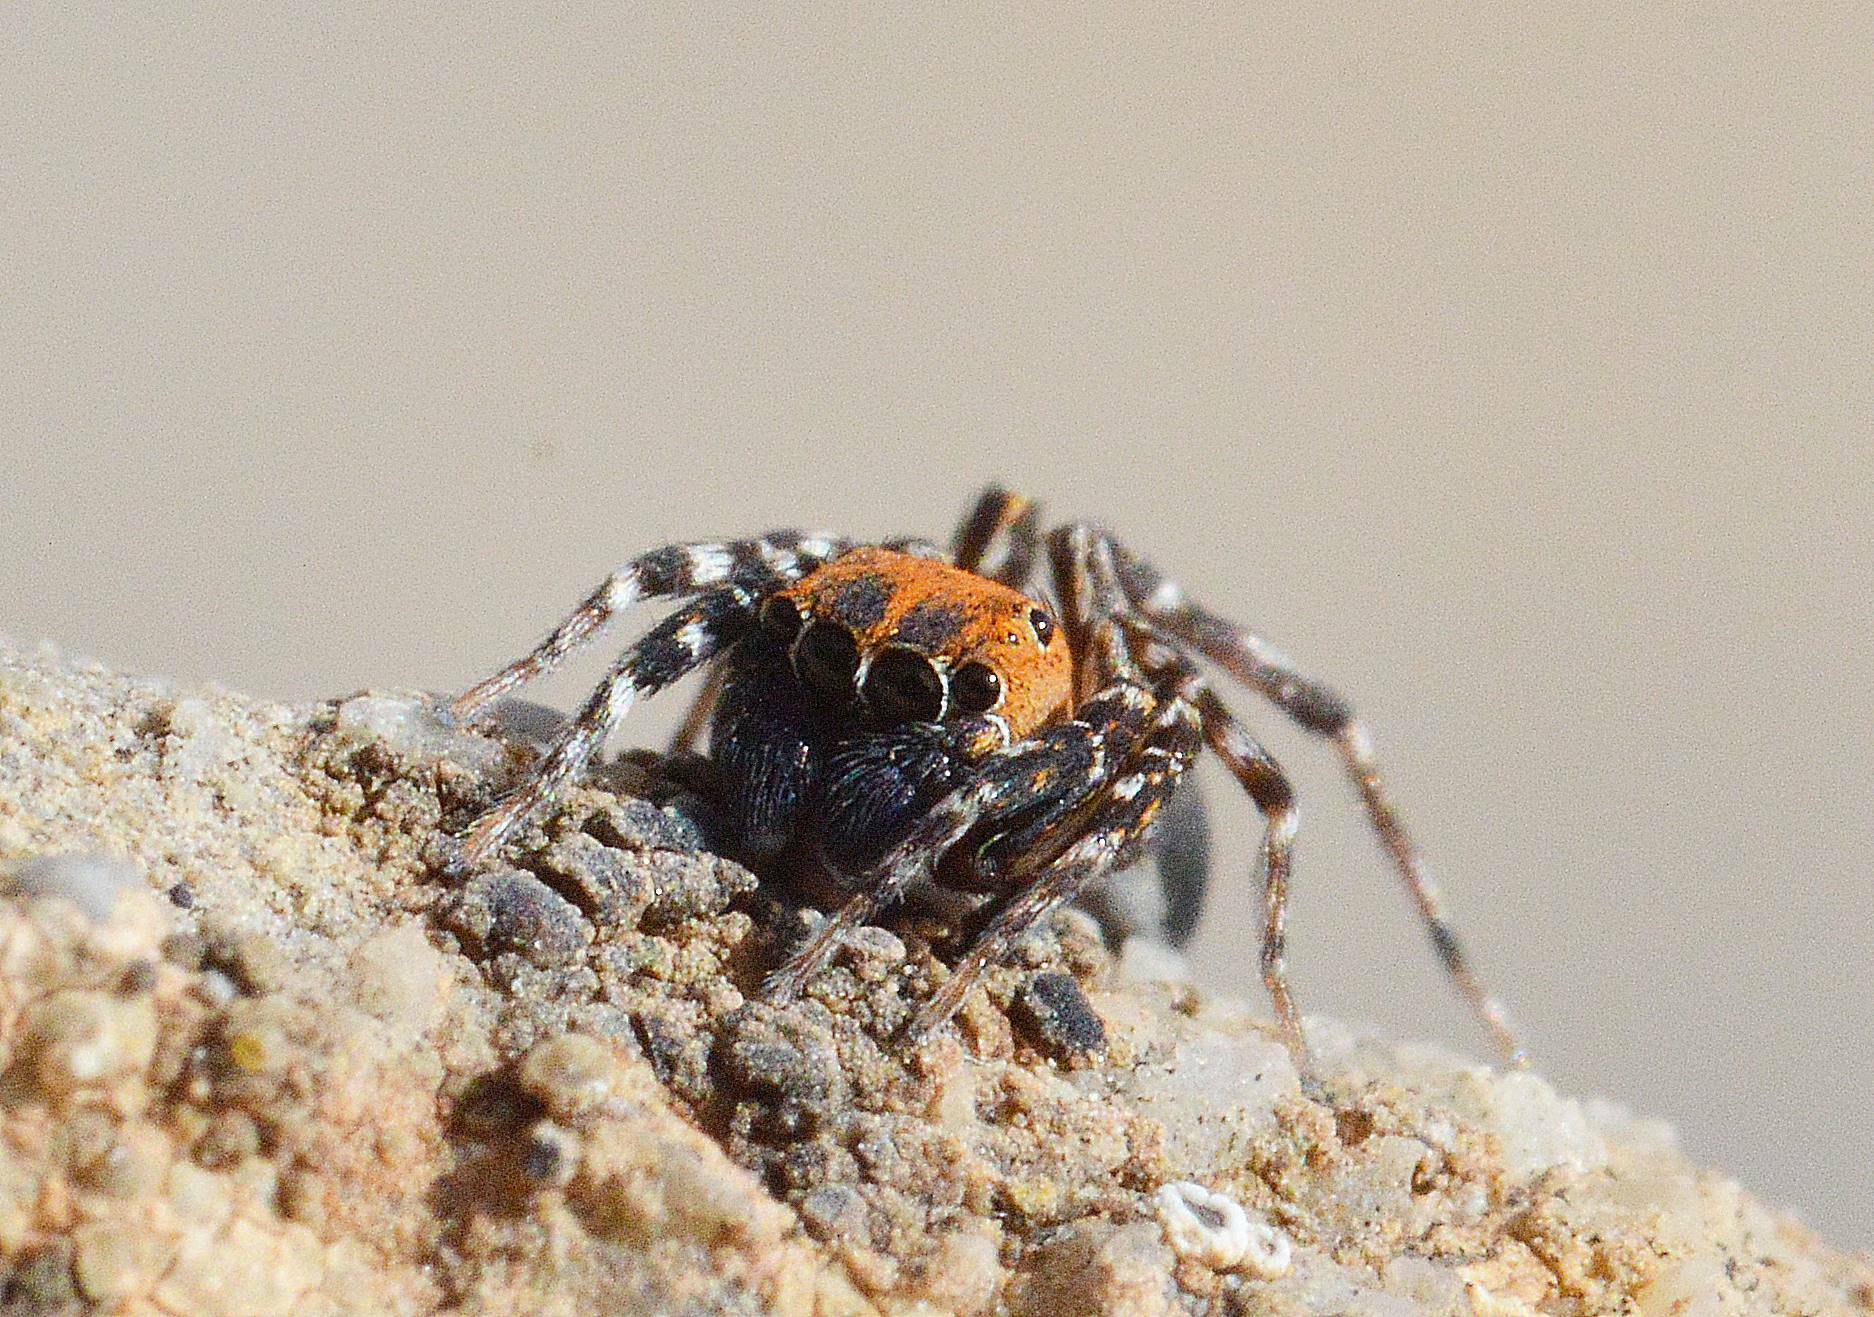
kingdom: Animalia
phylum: Arthropoda
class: Arachnida
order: Araneae
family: Salticidae
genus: Cyrba
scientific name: Cyrba algerina
